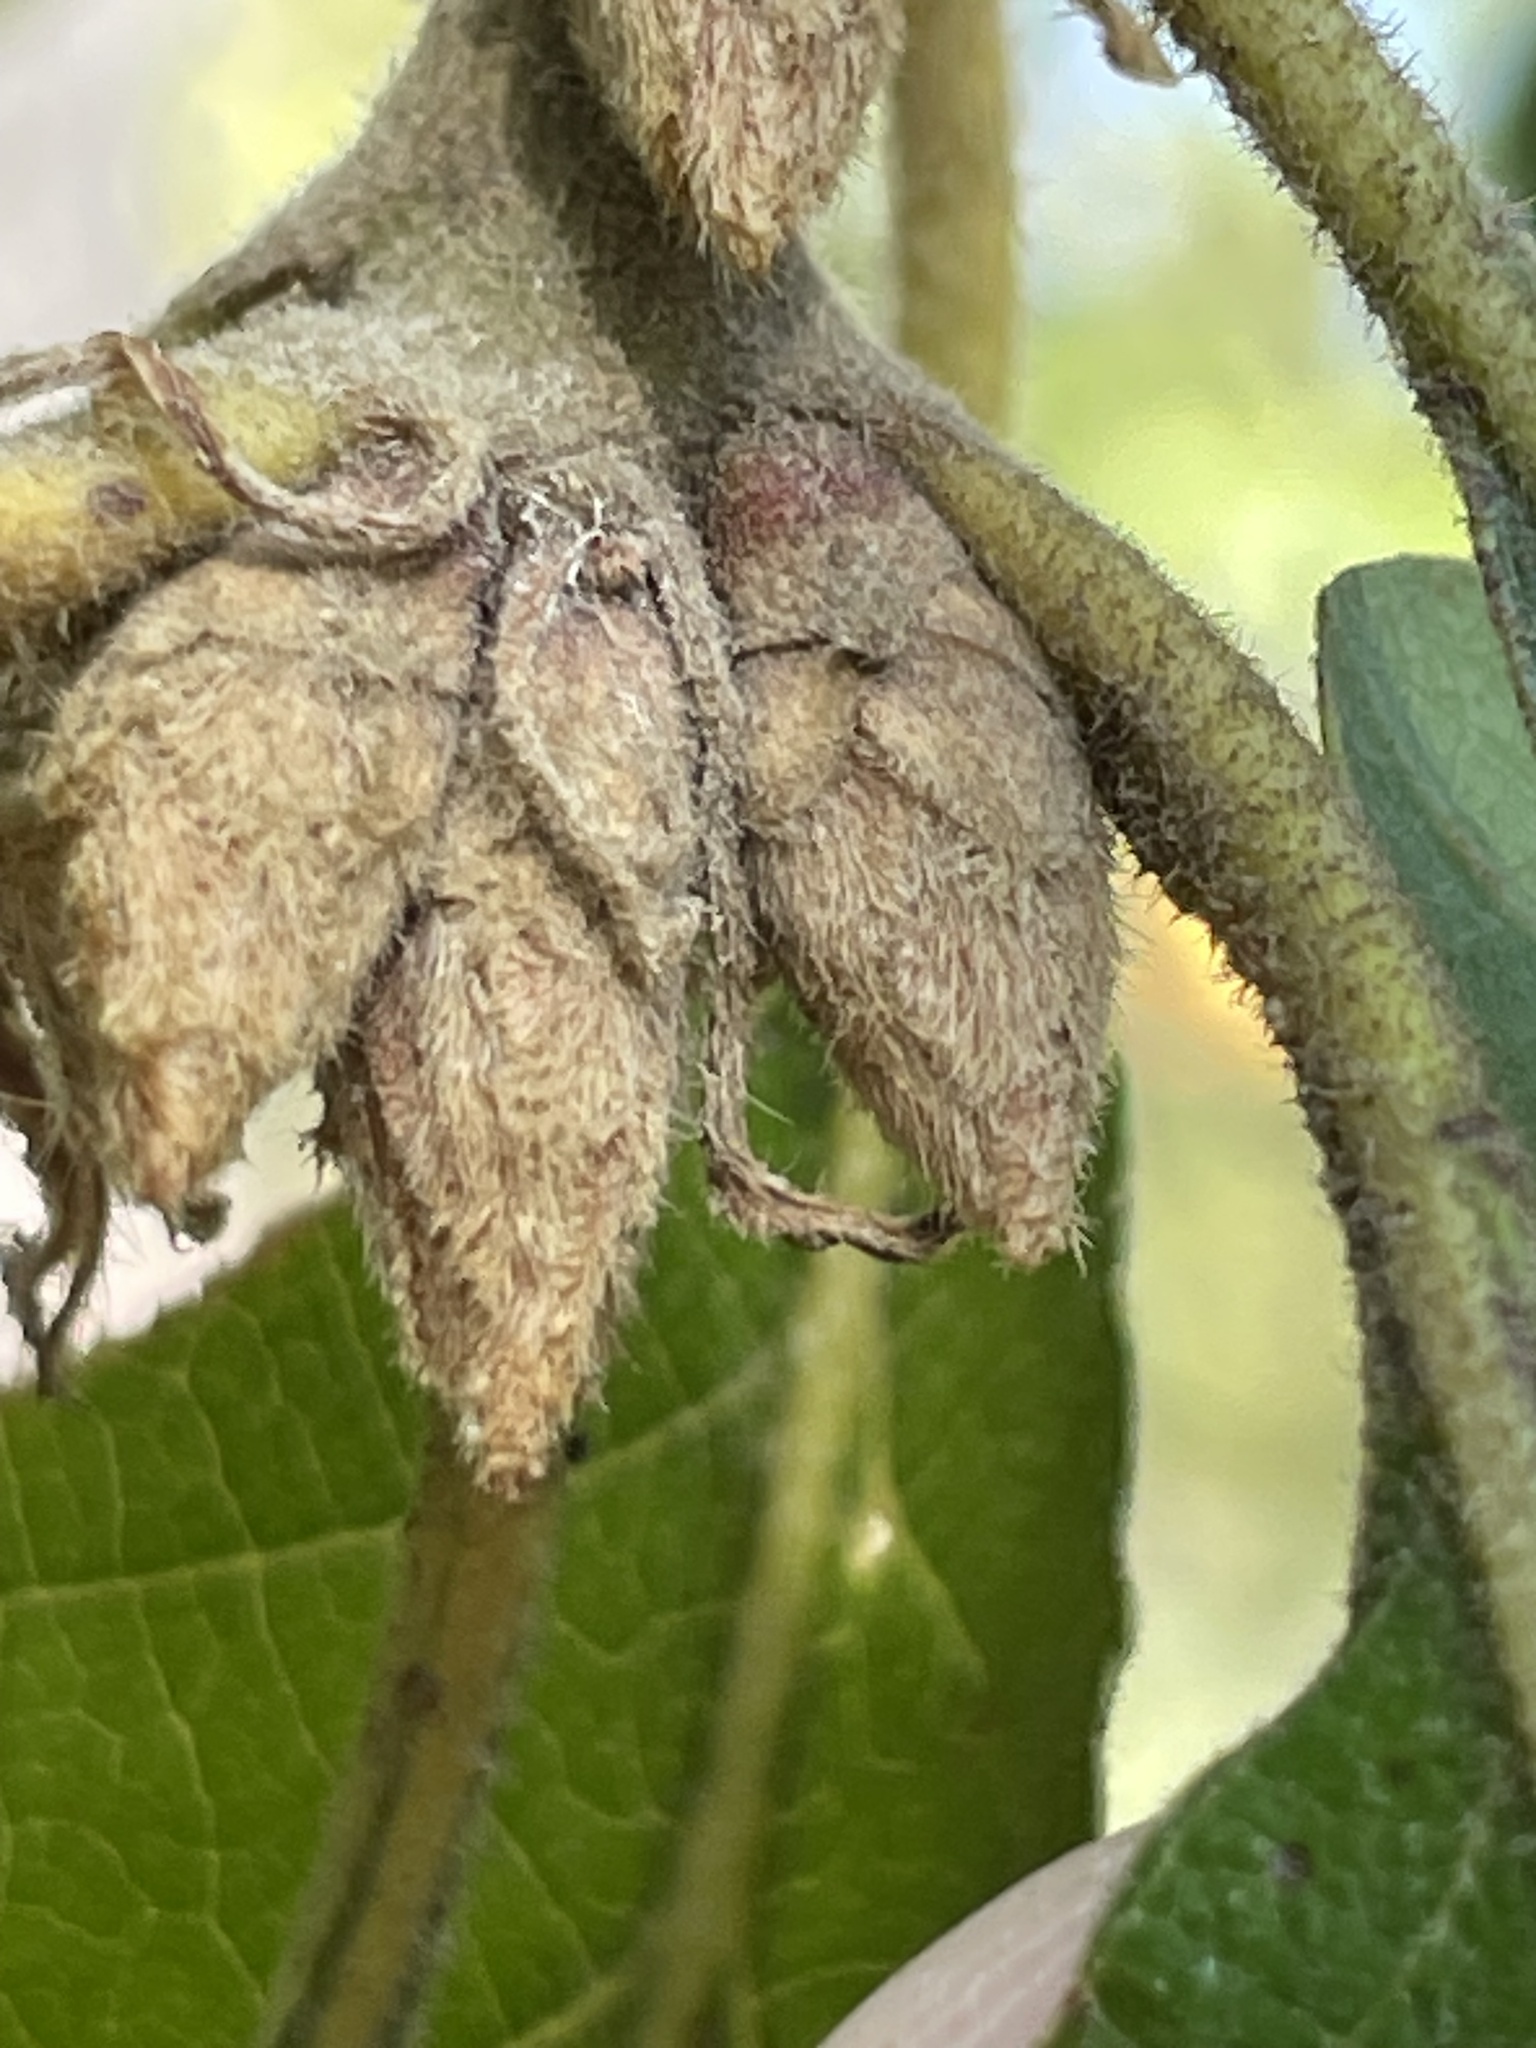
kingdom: Plantae
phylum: Tracheophyta
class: Magnoliopsida
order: Fagales
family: Fagaceae
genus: Quercus
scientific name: Quercus garryana
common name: Garry oak
